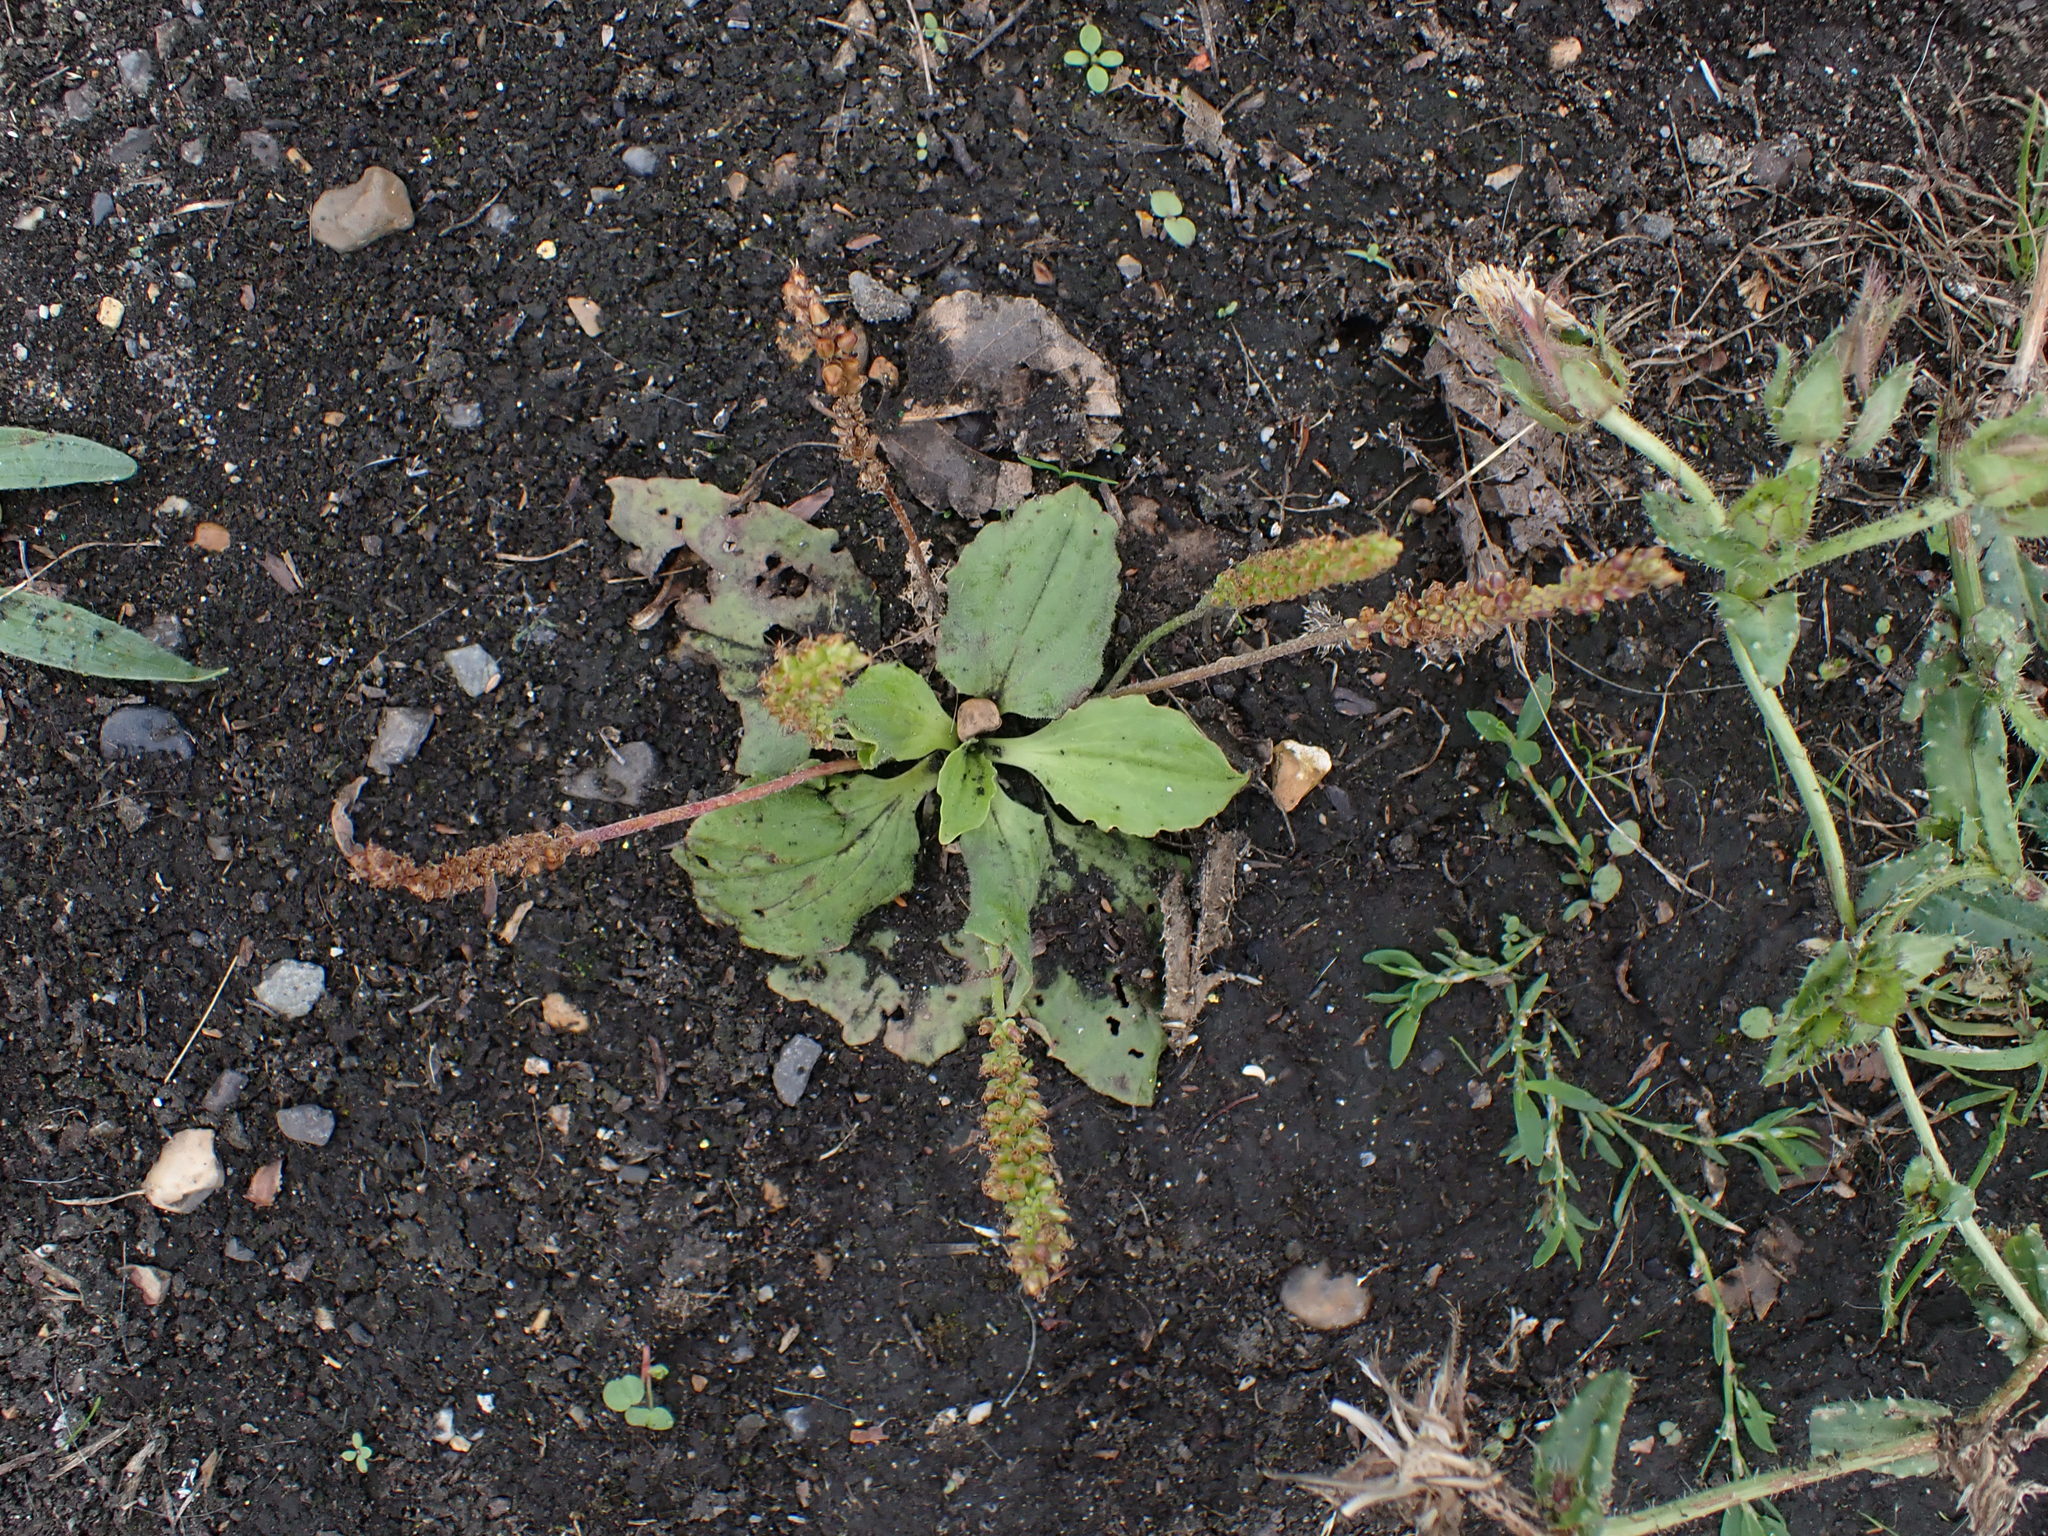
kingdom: Plantae
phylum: Tracheophyta
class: Magnoliopsida
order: Lamiales
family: Plantaginaceae
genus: Plantago
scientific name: Plantago major
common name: Common plantain
